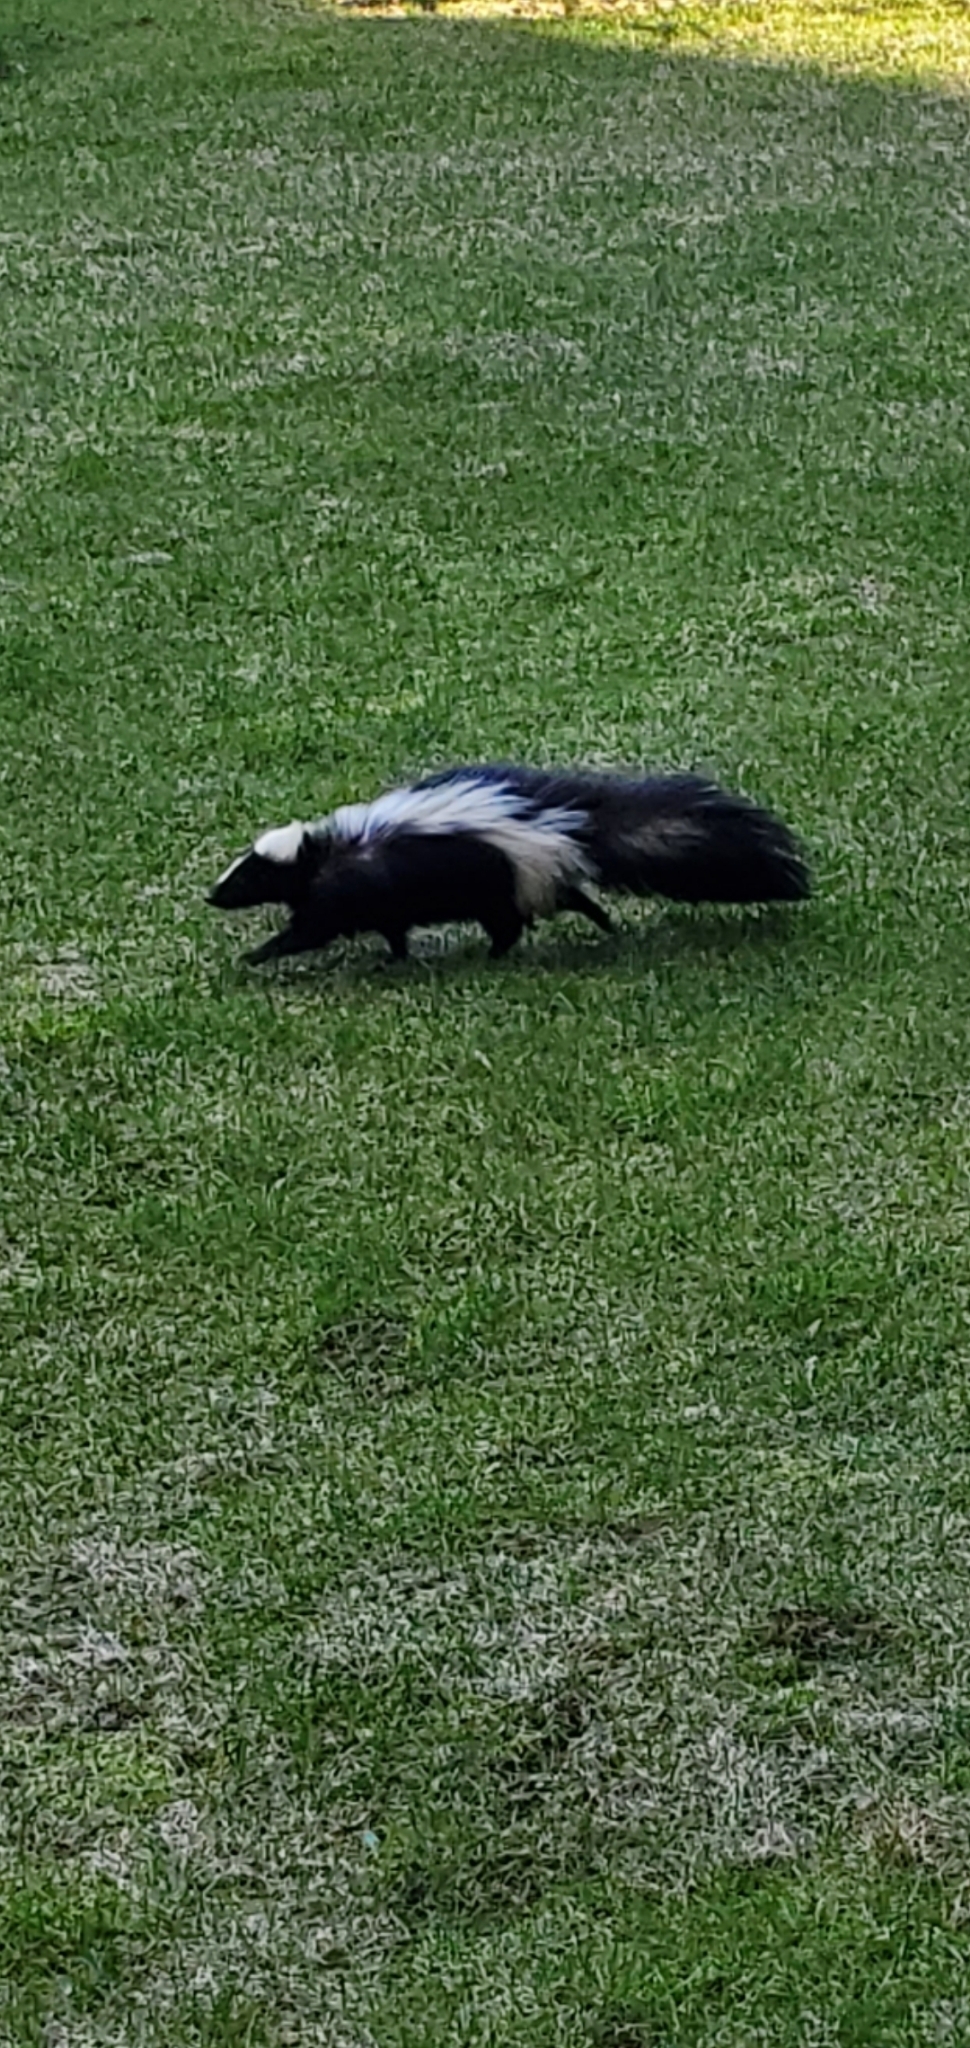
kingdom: Animalia
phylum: Chordata
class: Mammalia
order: Carnivora
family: Mephitidae
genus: Mephitis
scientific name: Mephitis mephitis
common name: Striped skunk
